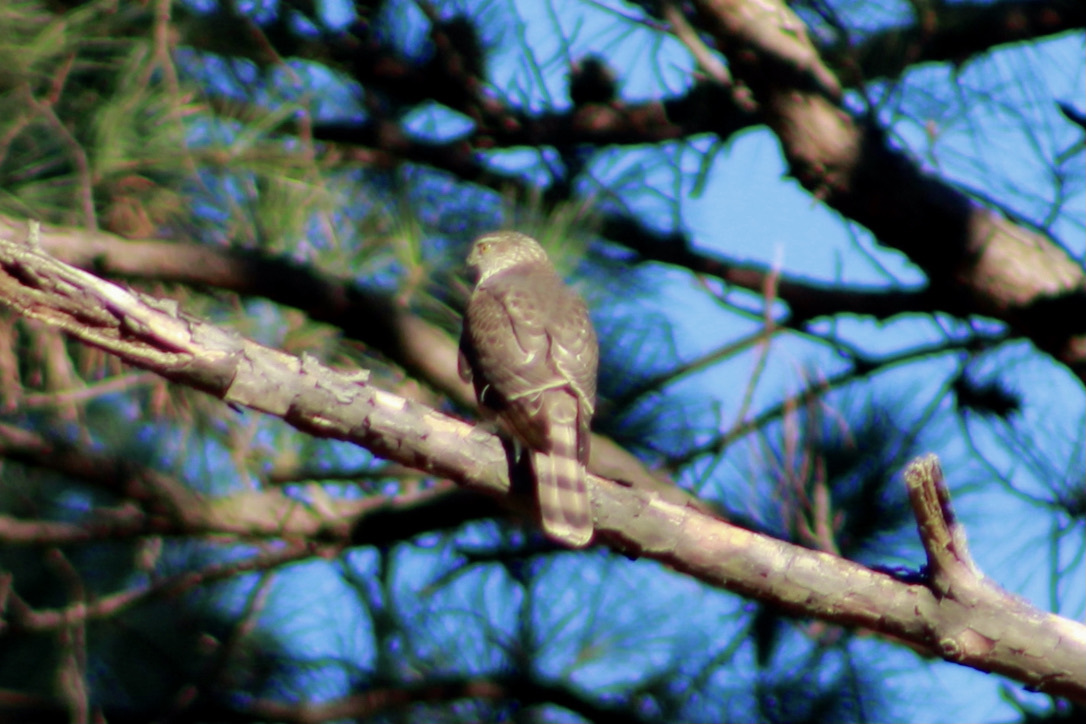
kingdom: Animalia
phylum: Chordata
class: Aves
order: Accipitriformes
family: Accipitridae
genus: Accipiter
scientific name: Accipiter striatus
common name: Sharp-shinned hawk
